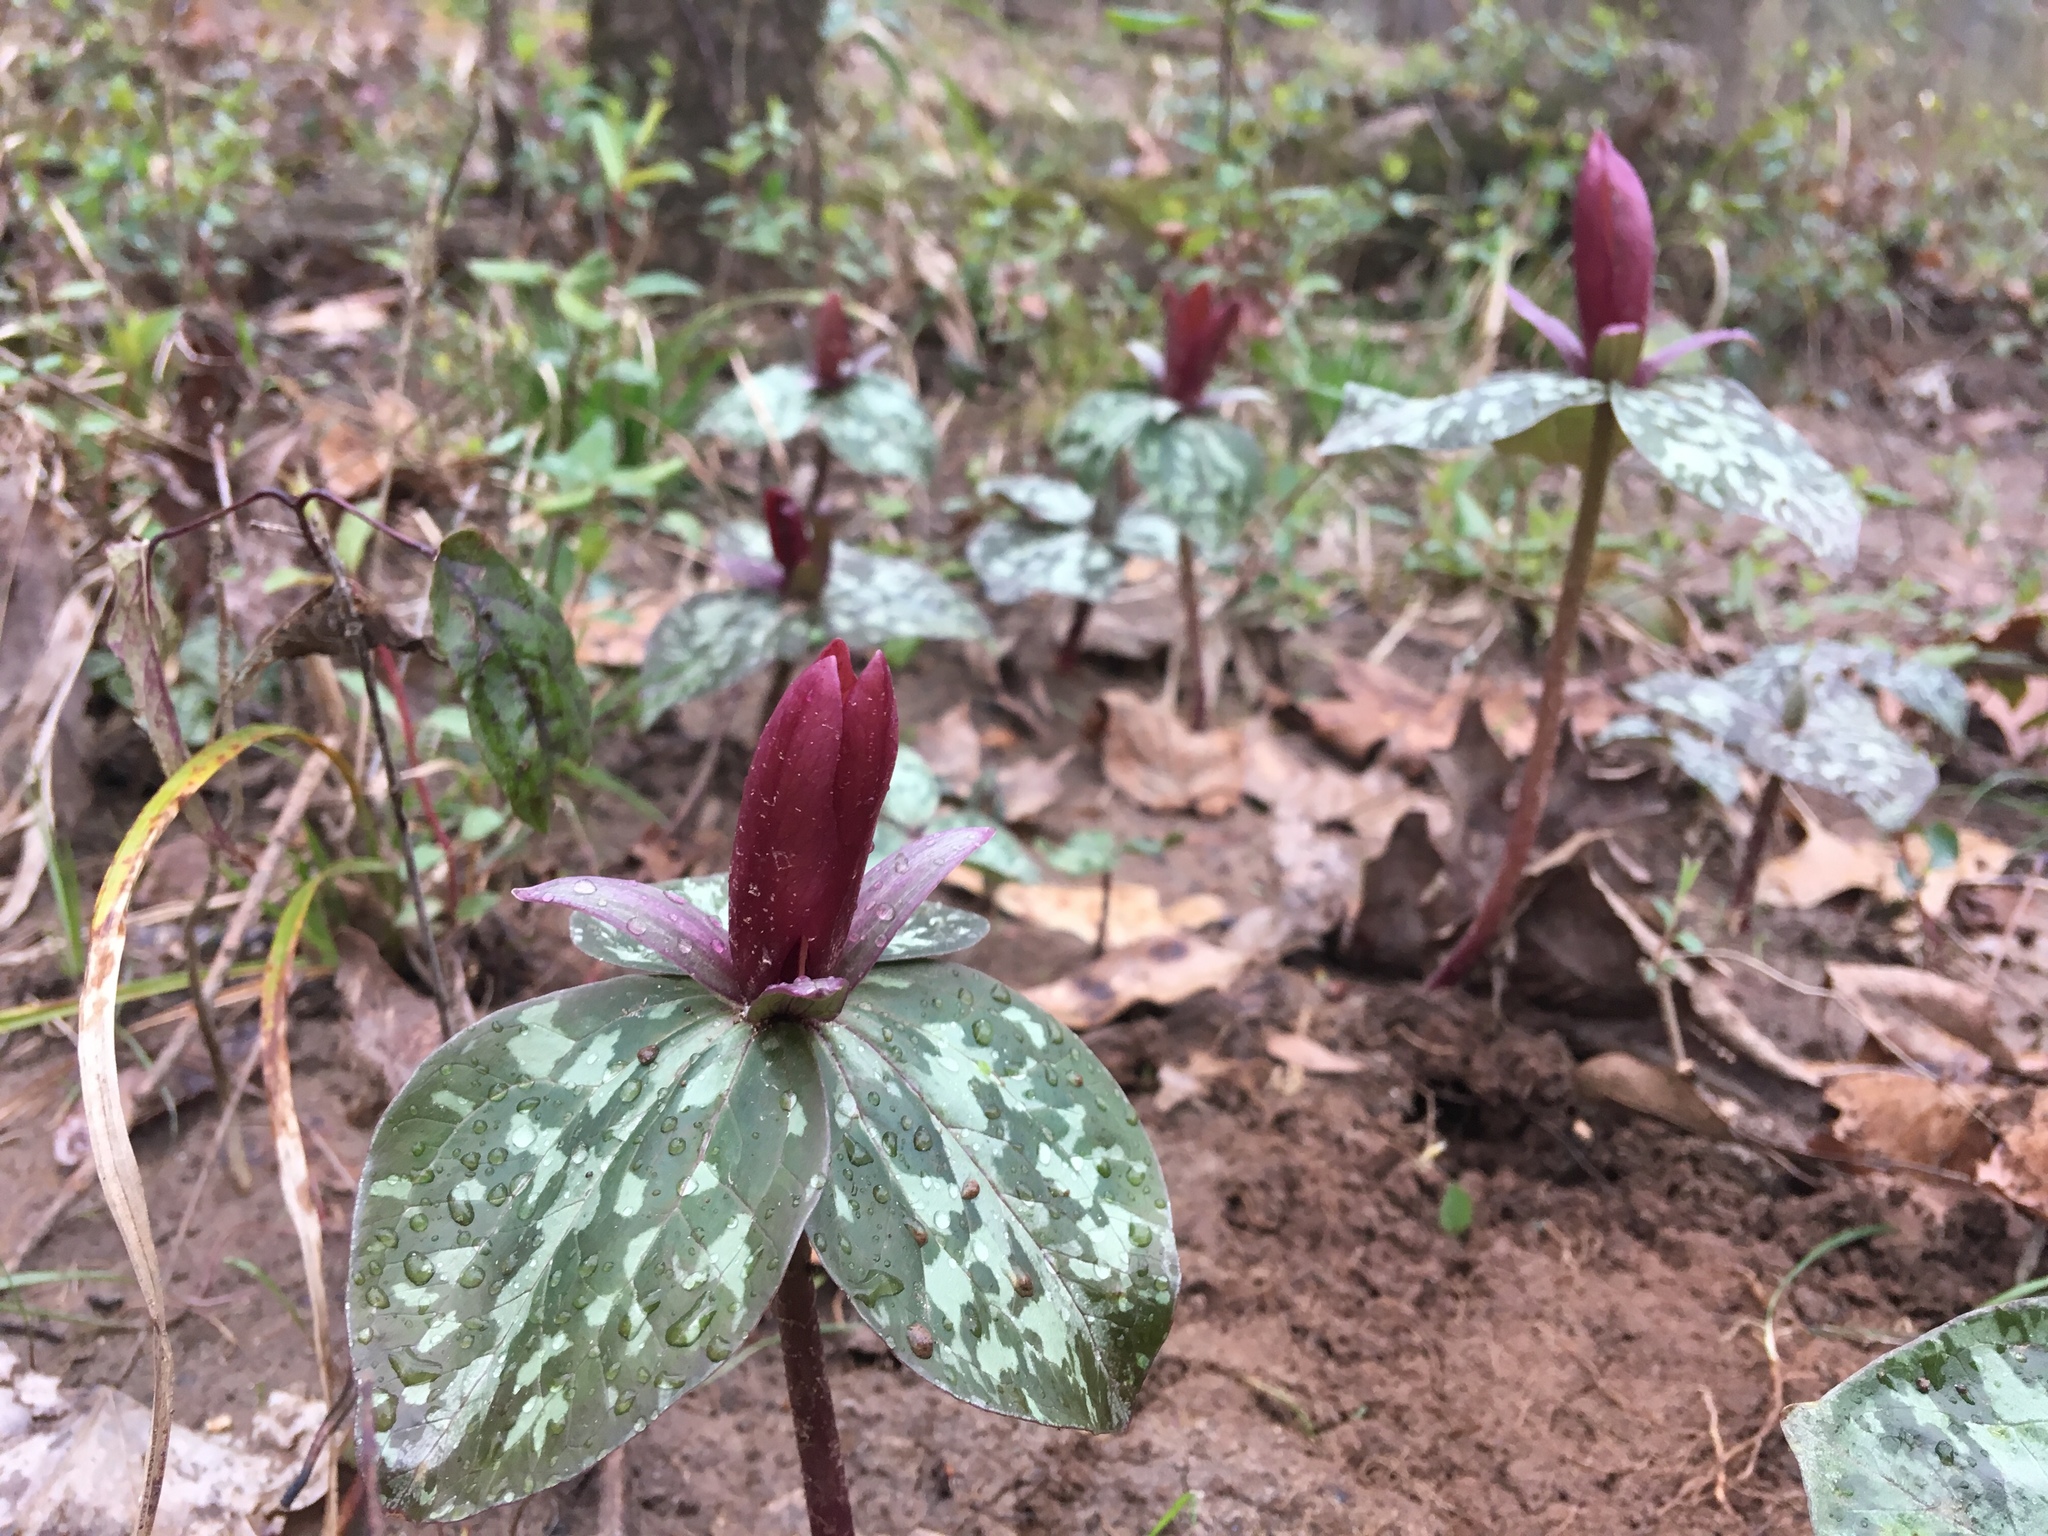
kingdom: Plantae
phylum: Tracheophyta
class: Liliopsida
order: Liliales
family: Melanthiaceae
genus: Trillium
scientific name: Trillium cuneatum
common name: Cuneate trillium
